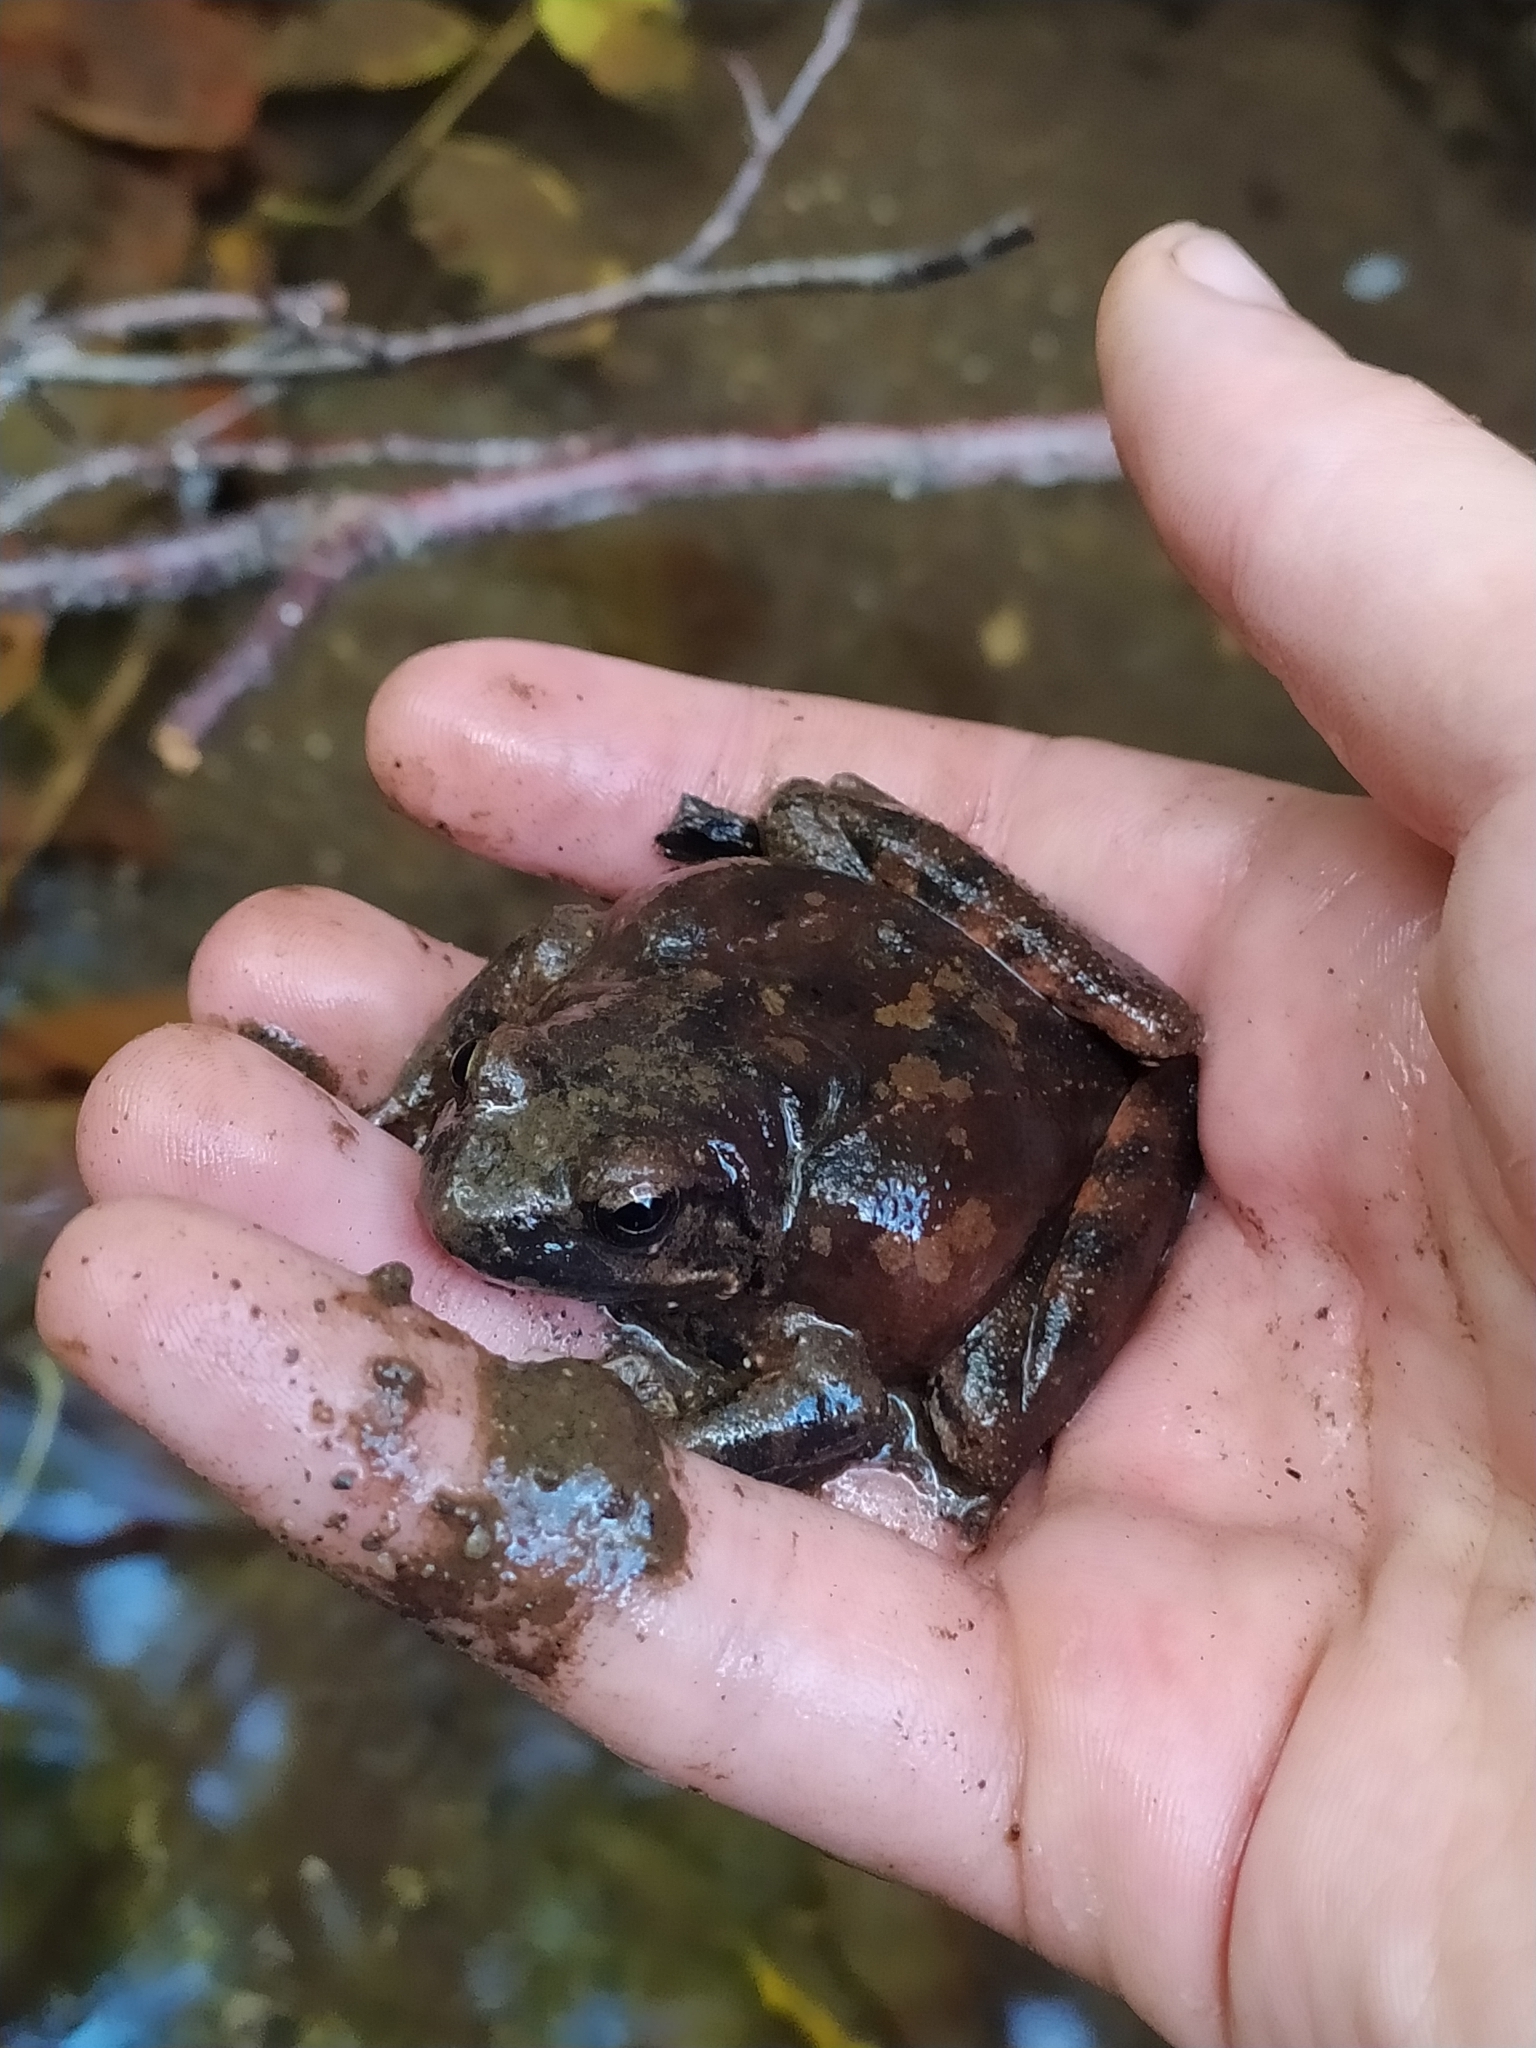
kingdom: Animalia
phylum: Chordata
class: Amphibia
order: Anura
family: Ranidae
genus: Rana
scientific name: Rana italica
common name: Italian stream frog
